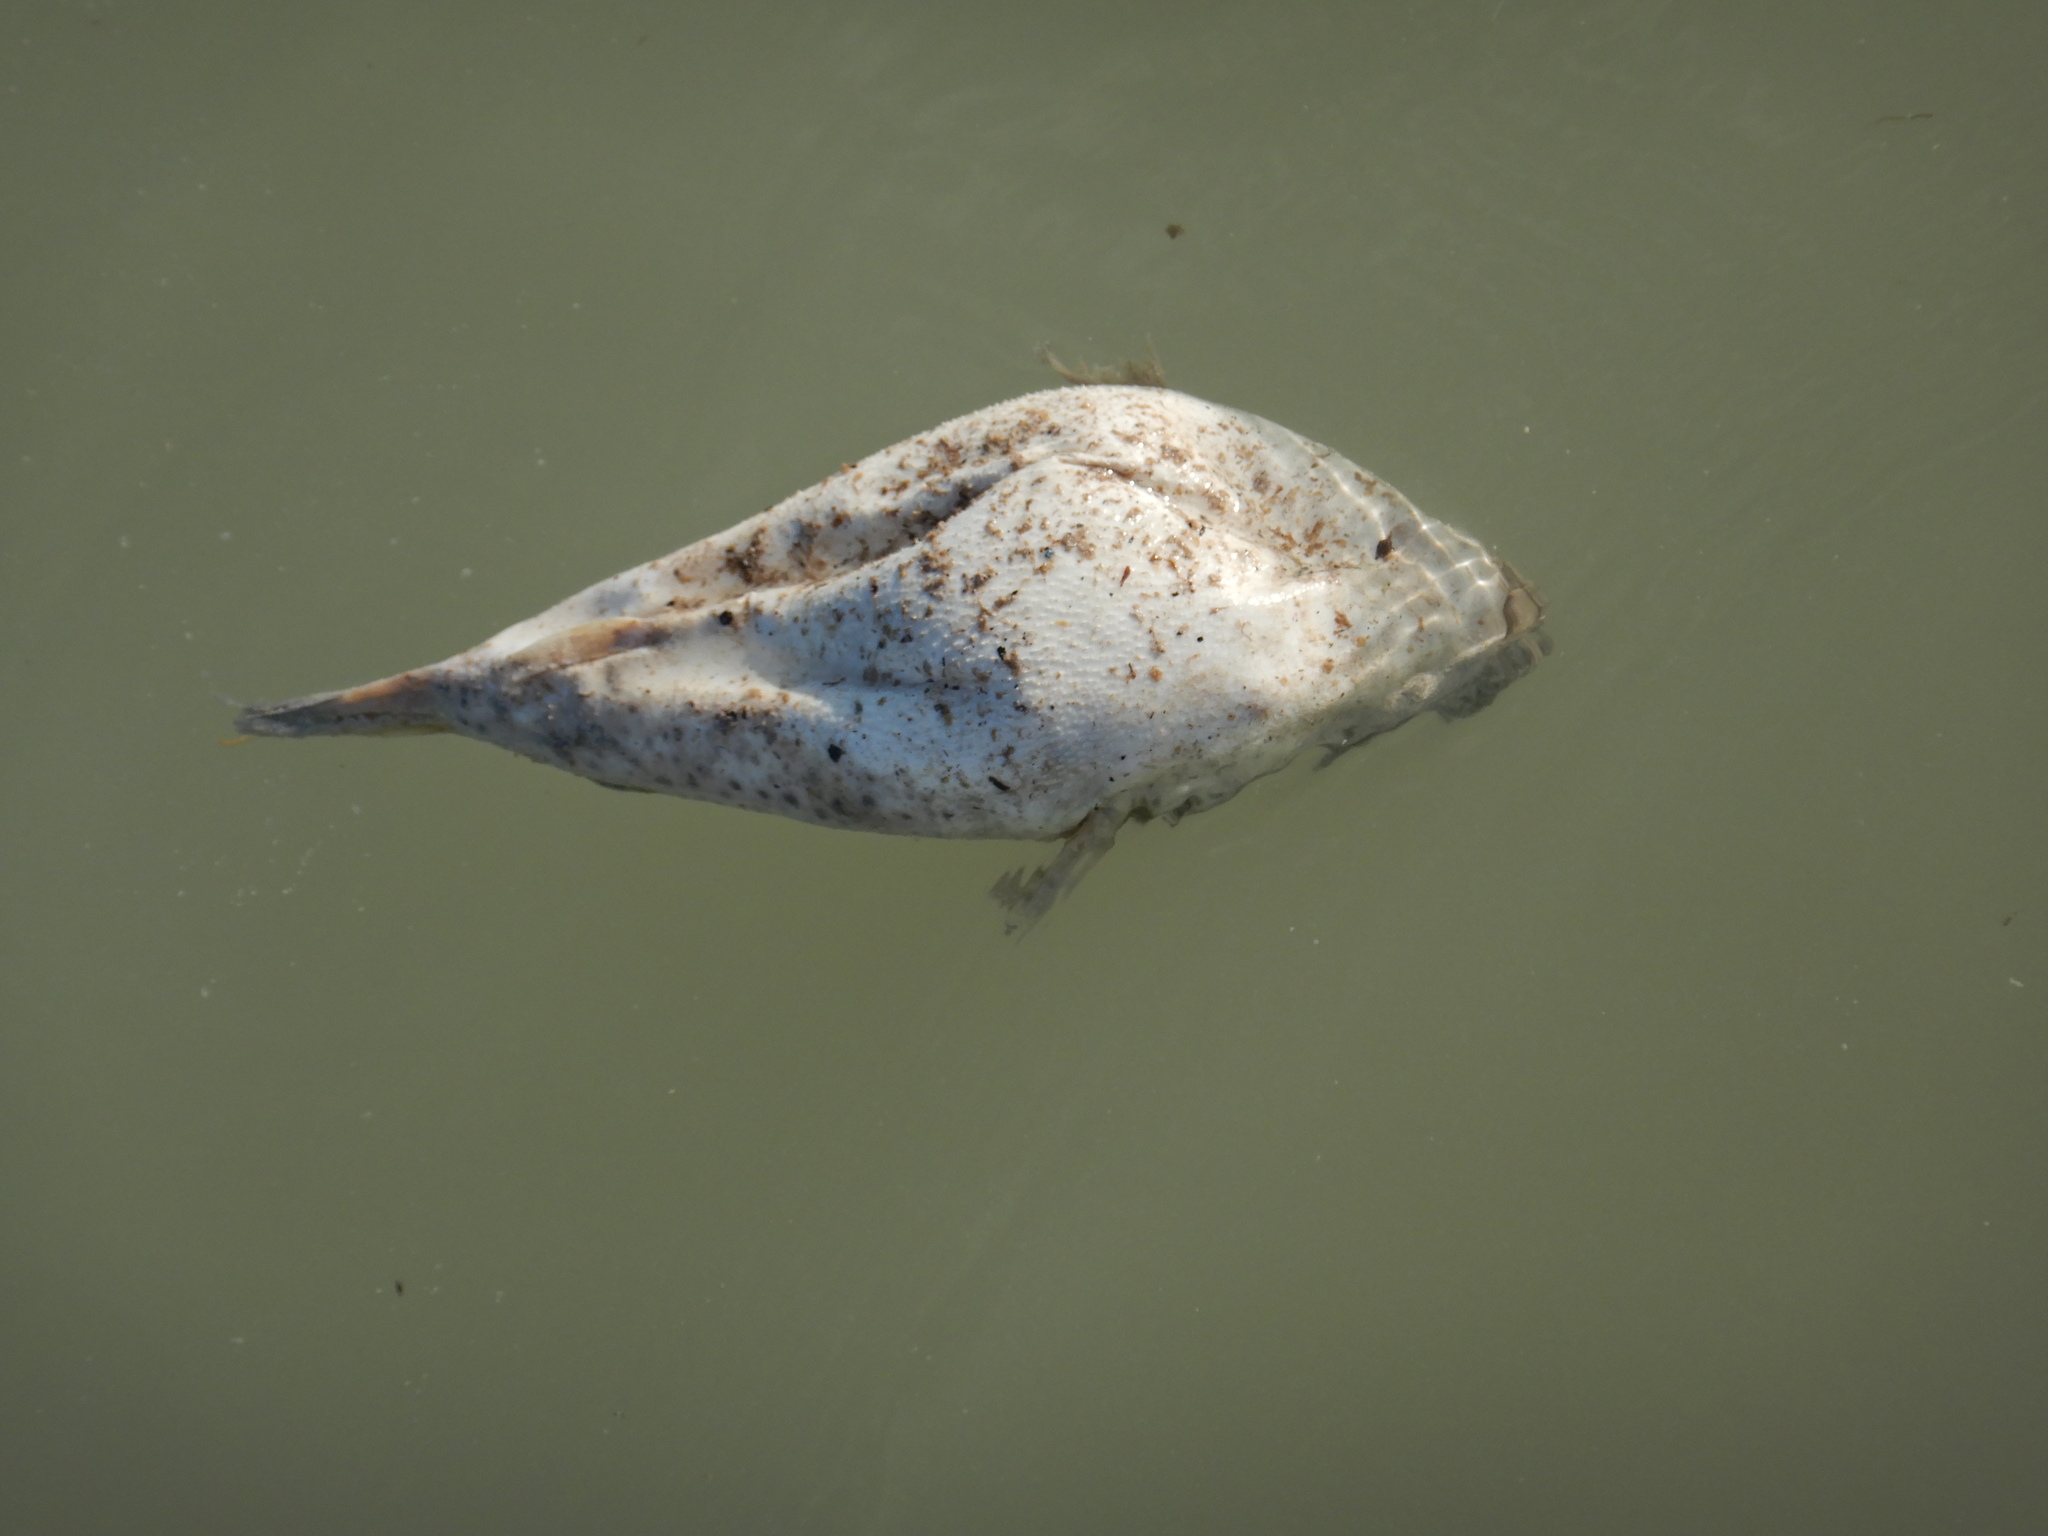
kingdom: Animalia
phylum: Chordata
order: Tetraodontiformes
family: Tetraodontidae
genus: Sphoeroides
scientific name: Sphoeroides testudineus
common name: Checkered puffer
